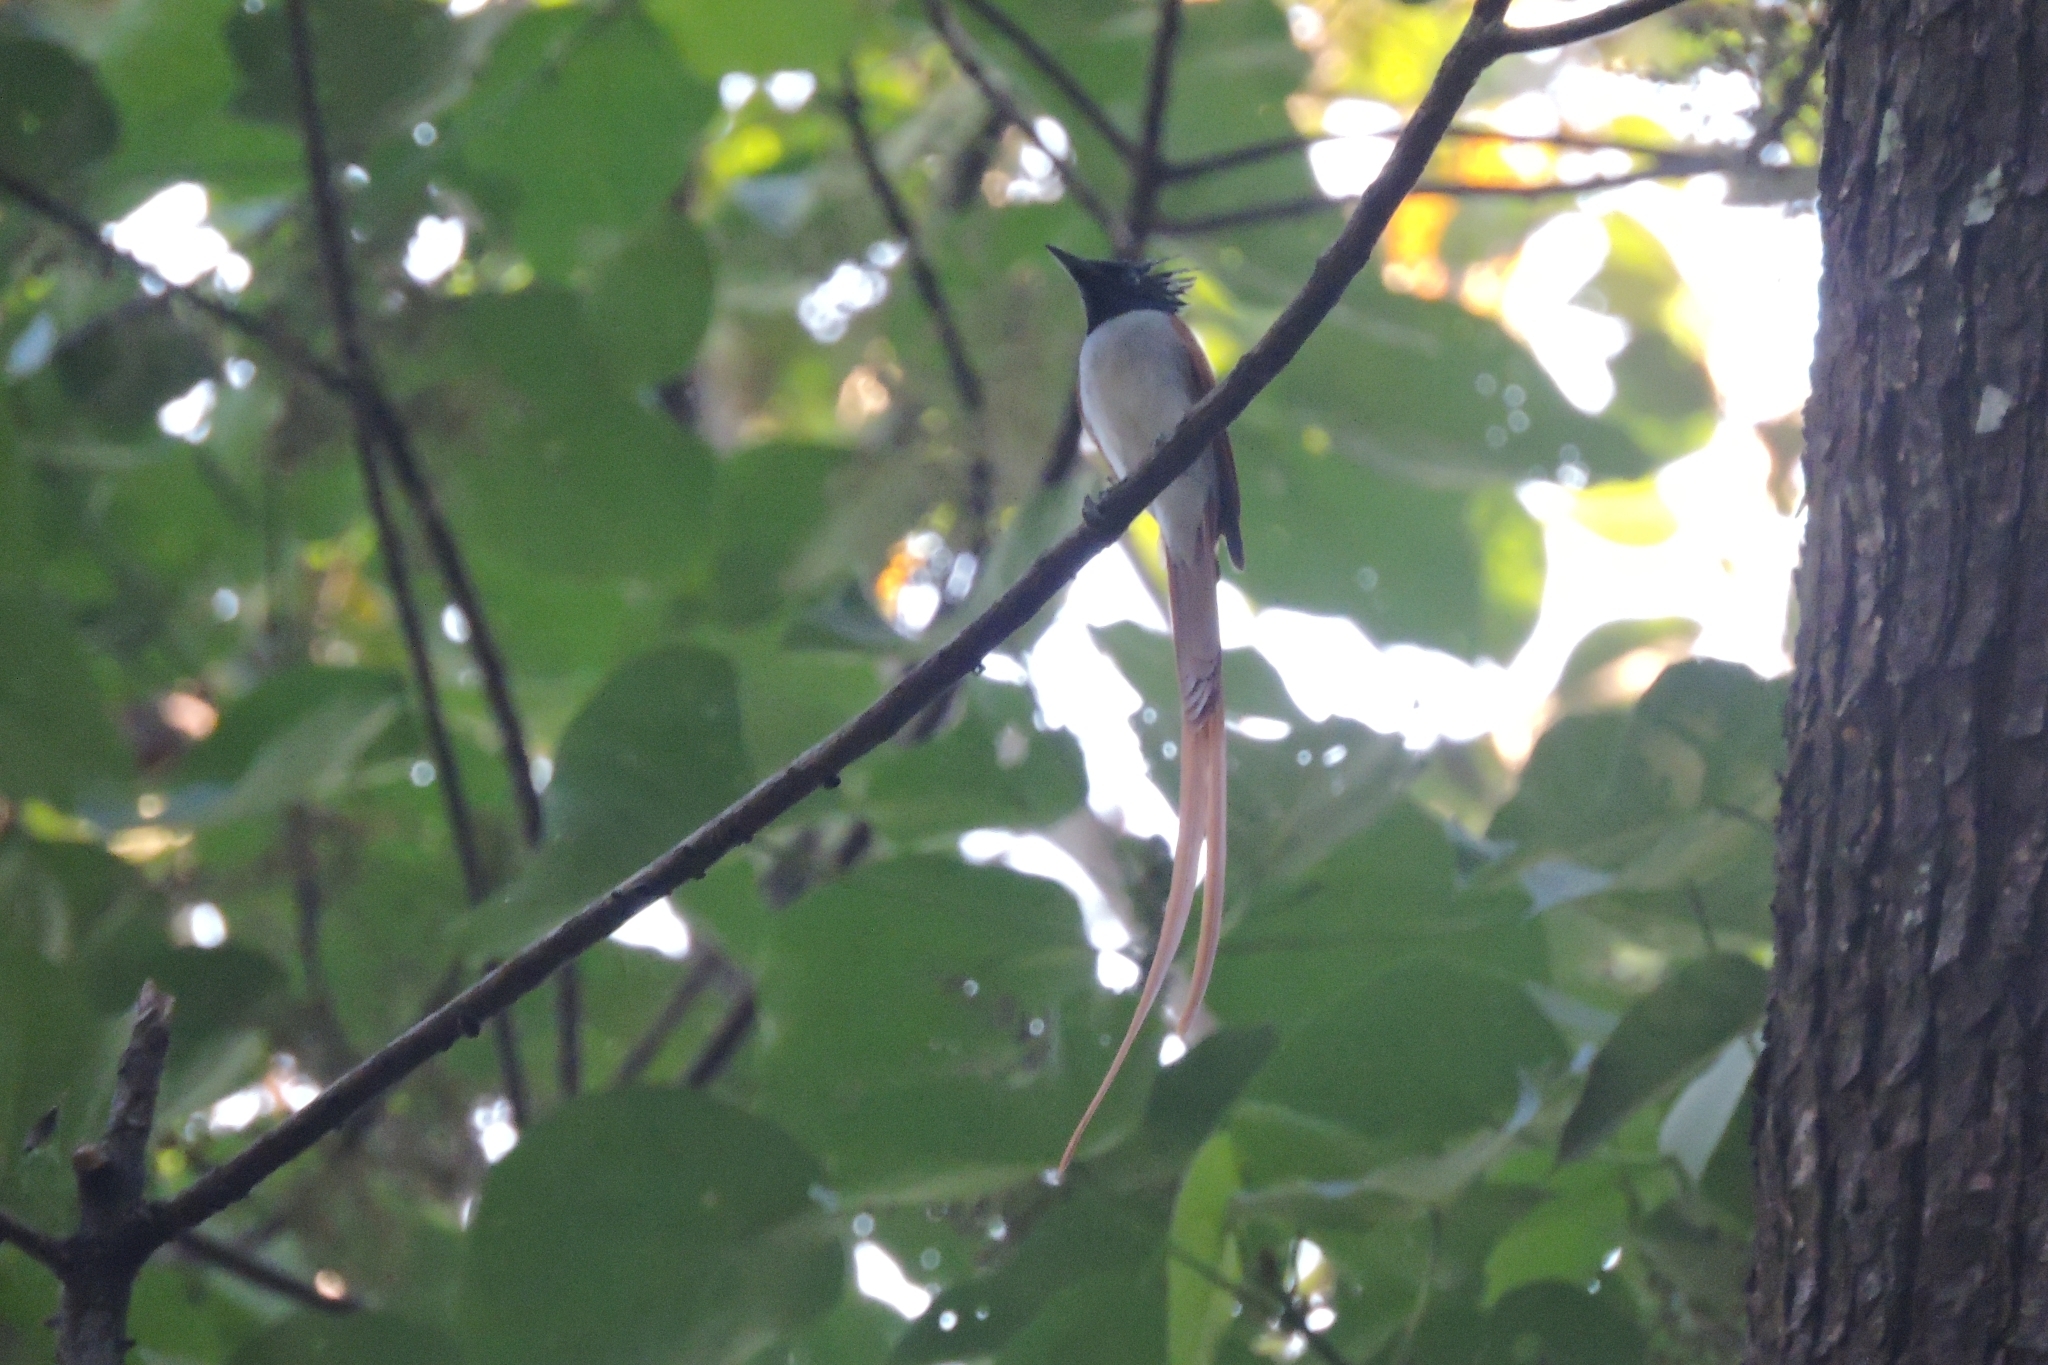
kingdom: Animalia
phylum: Chordata
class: Aves
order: Passeriformes
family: Monarchidae
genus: Terpsiphone
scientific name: Terpsiphone paradisi
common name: Indian paradise flycatcher
